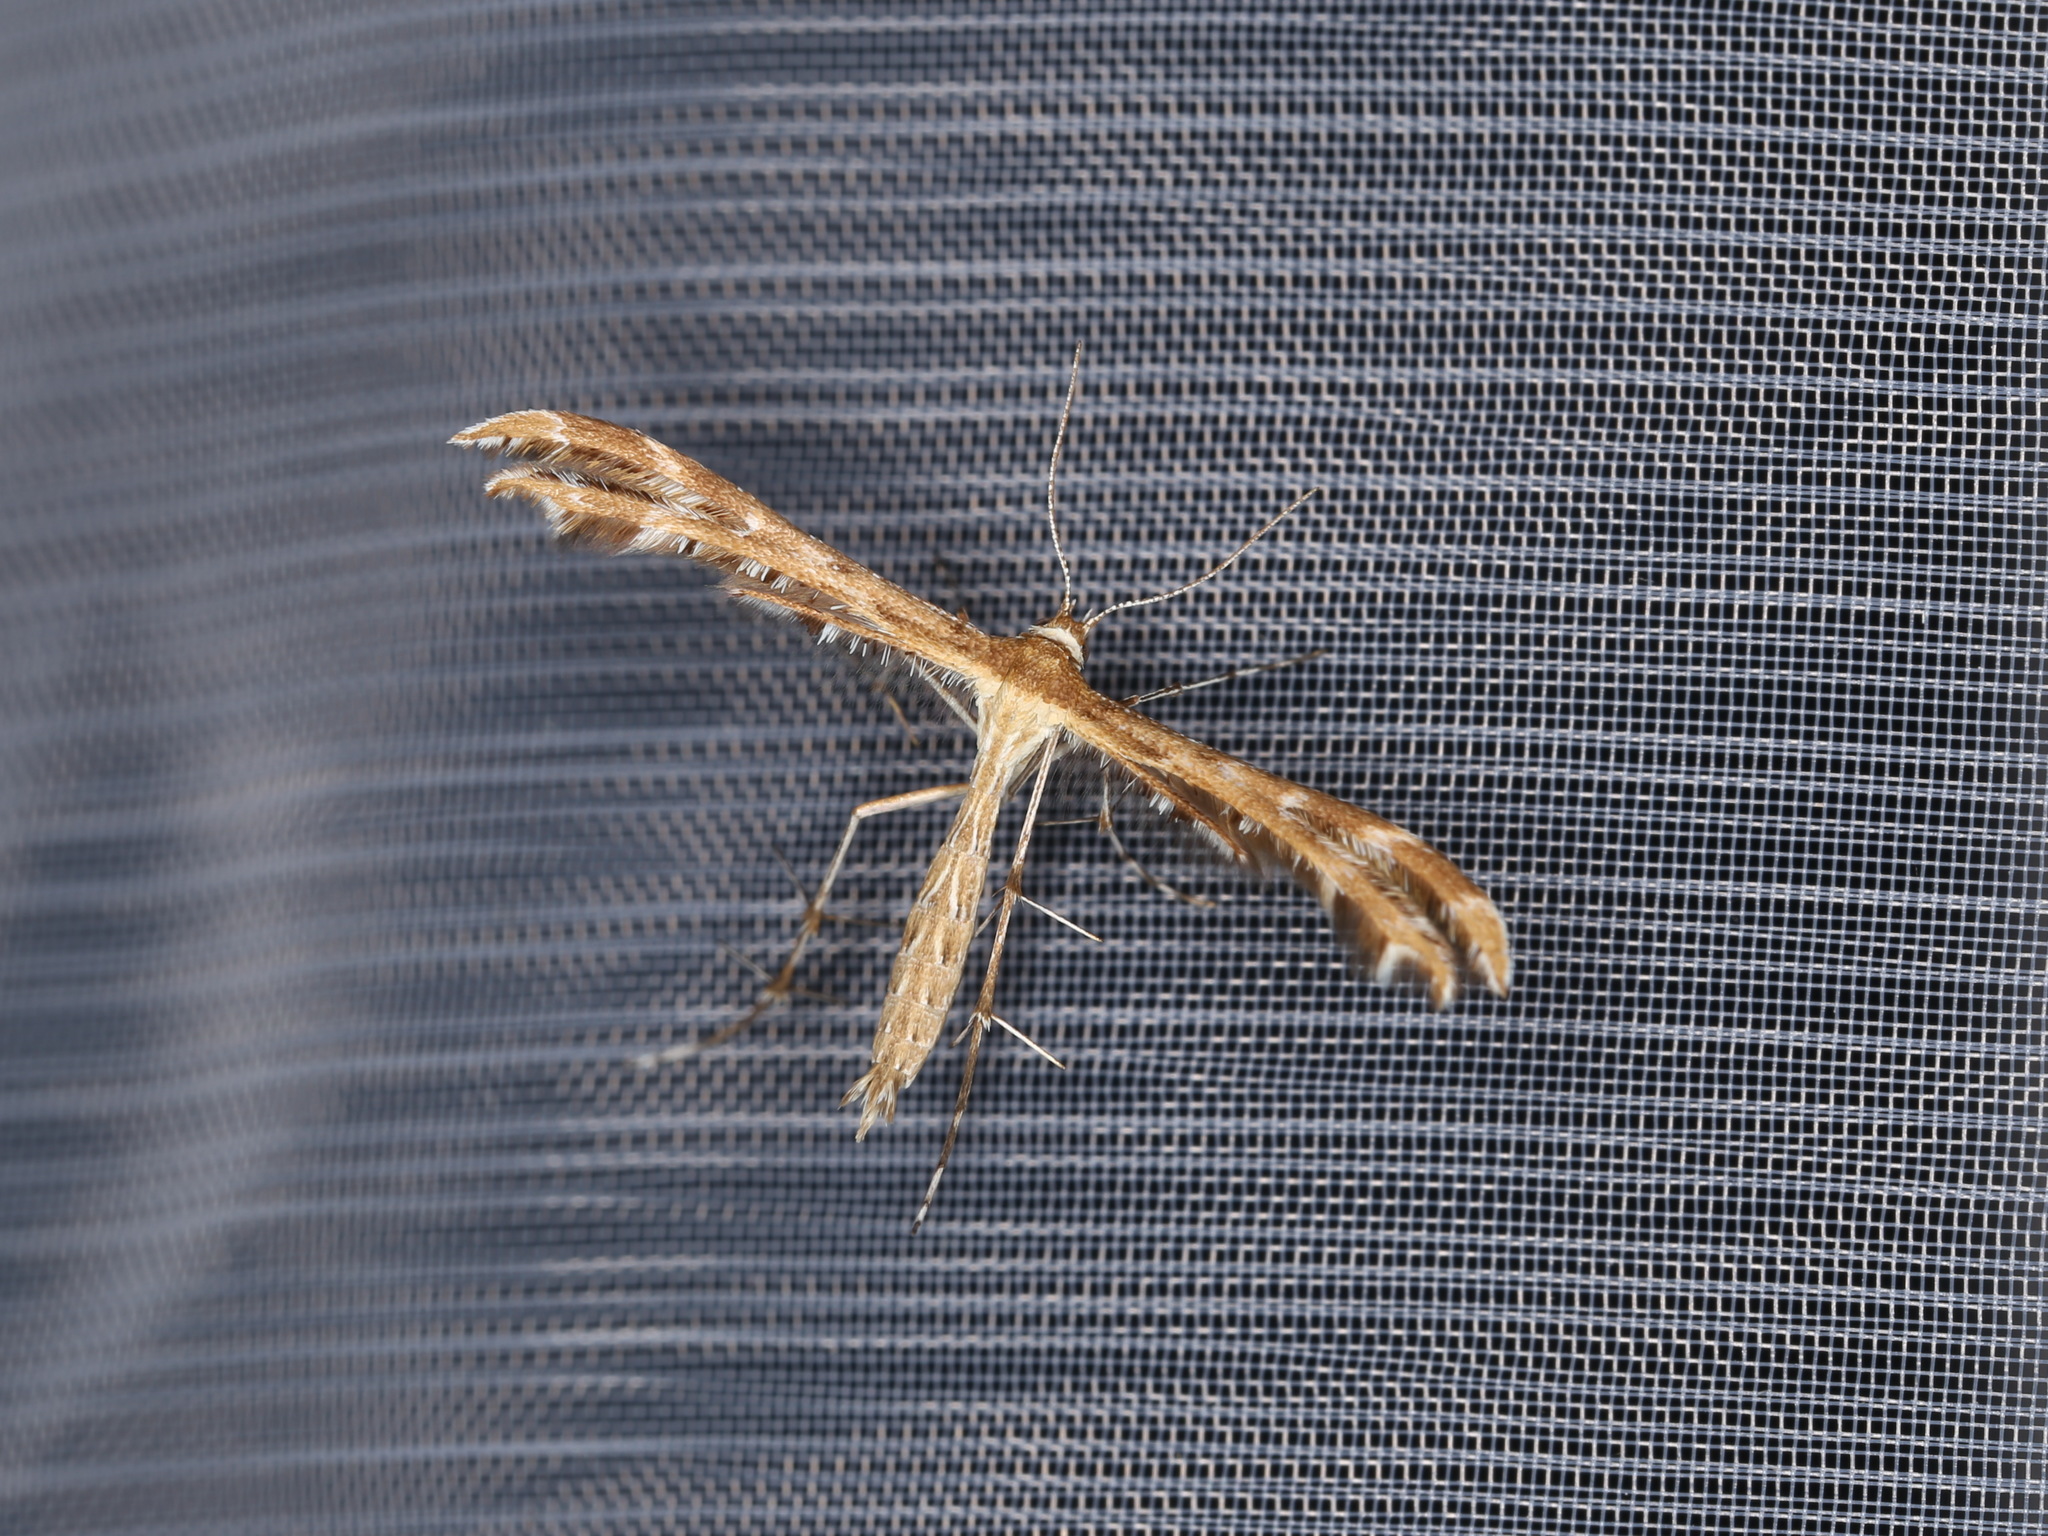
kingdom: Animalia
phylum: Arthropoda
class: Insecta
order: Lepidoptera
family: Pterophoridae
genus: Crombrugghia
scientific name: Crombrugghia distans
